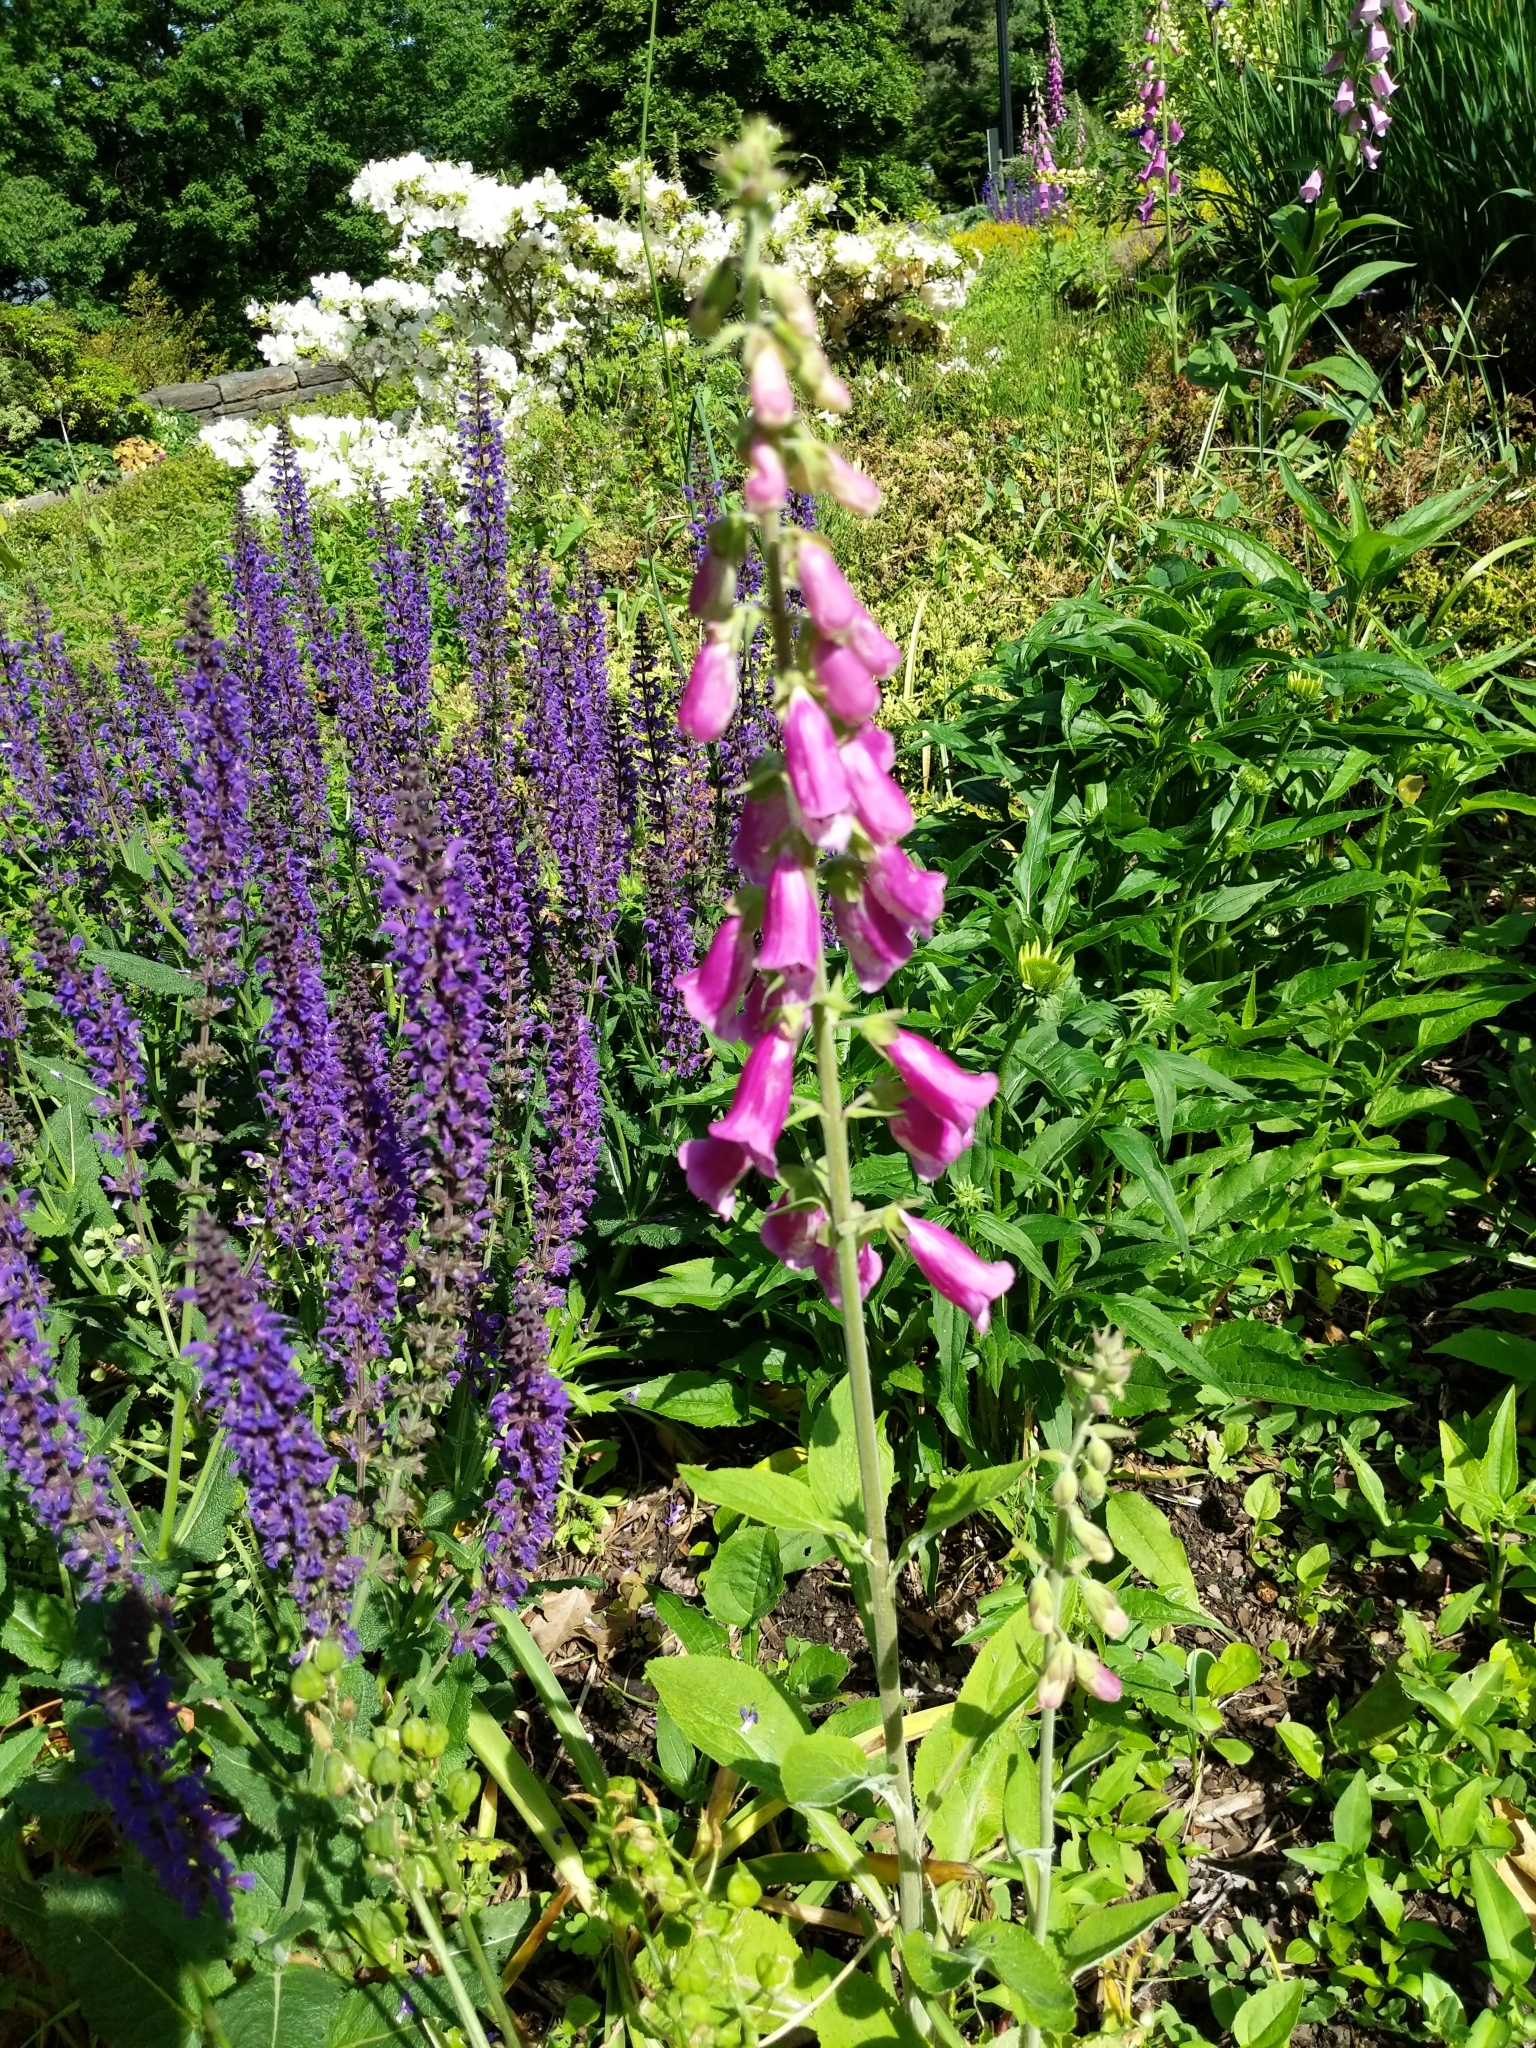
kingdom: Plantae
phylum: Tracheophyta
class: Magnoliopsida
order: Lamiales
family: Plantaginaceae
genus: Digitalis
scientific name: Digitalis purpurea
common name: Foxglove
